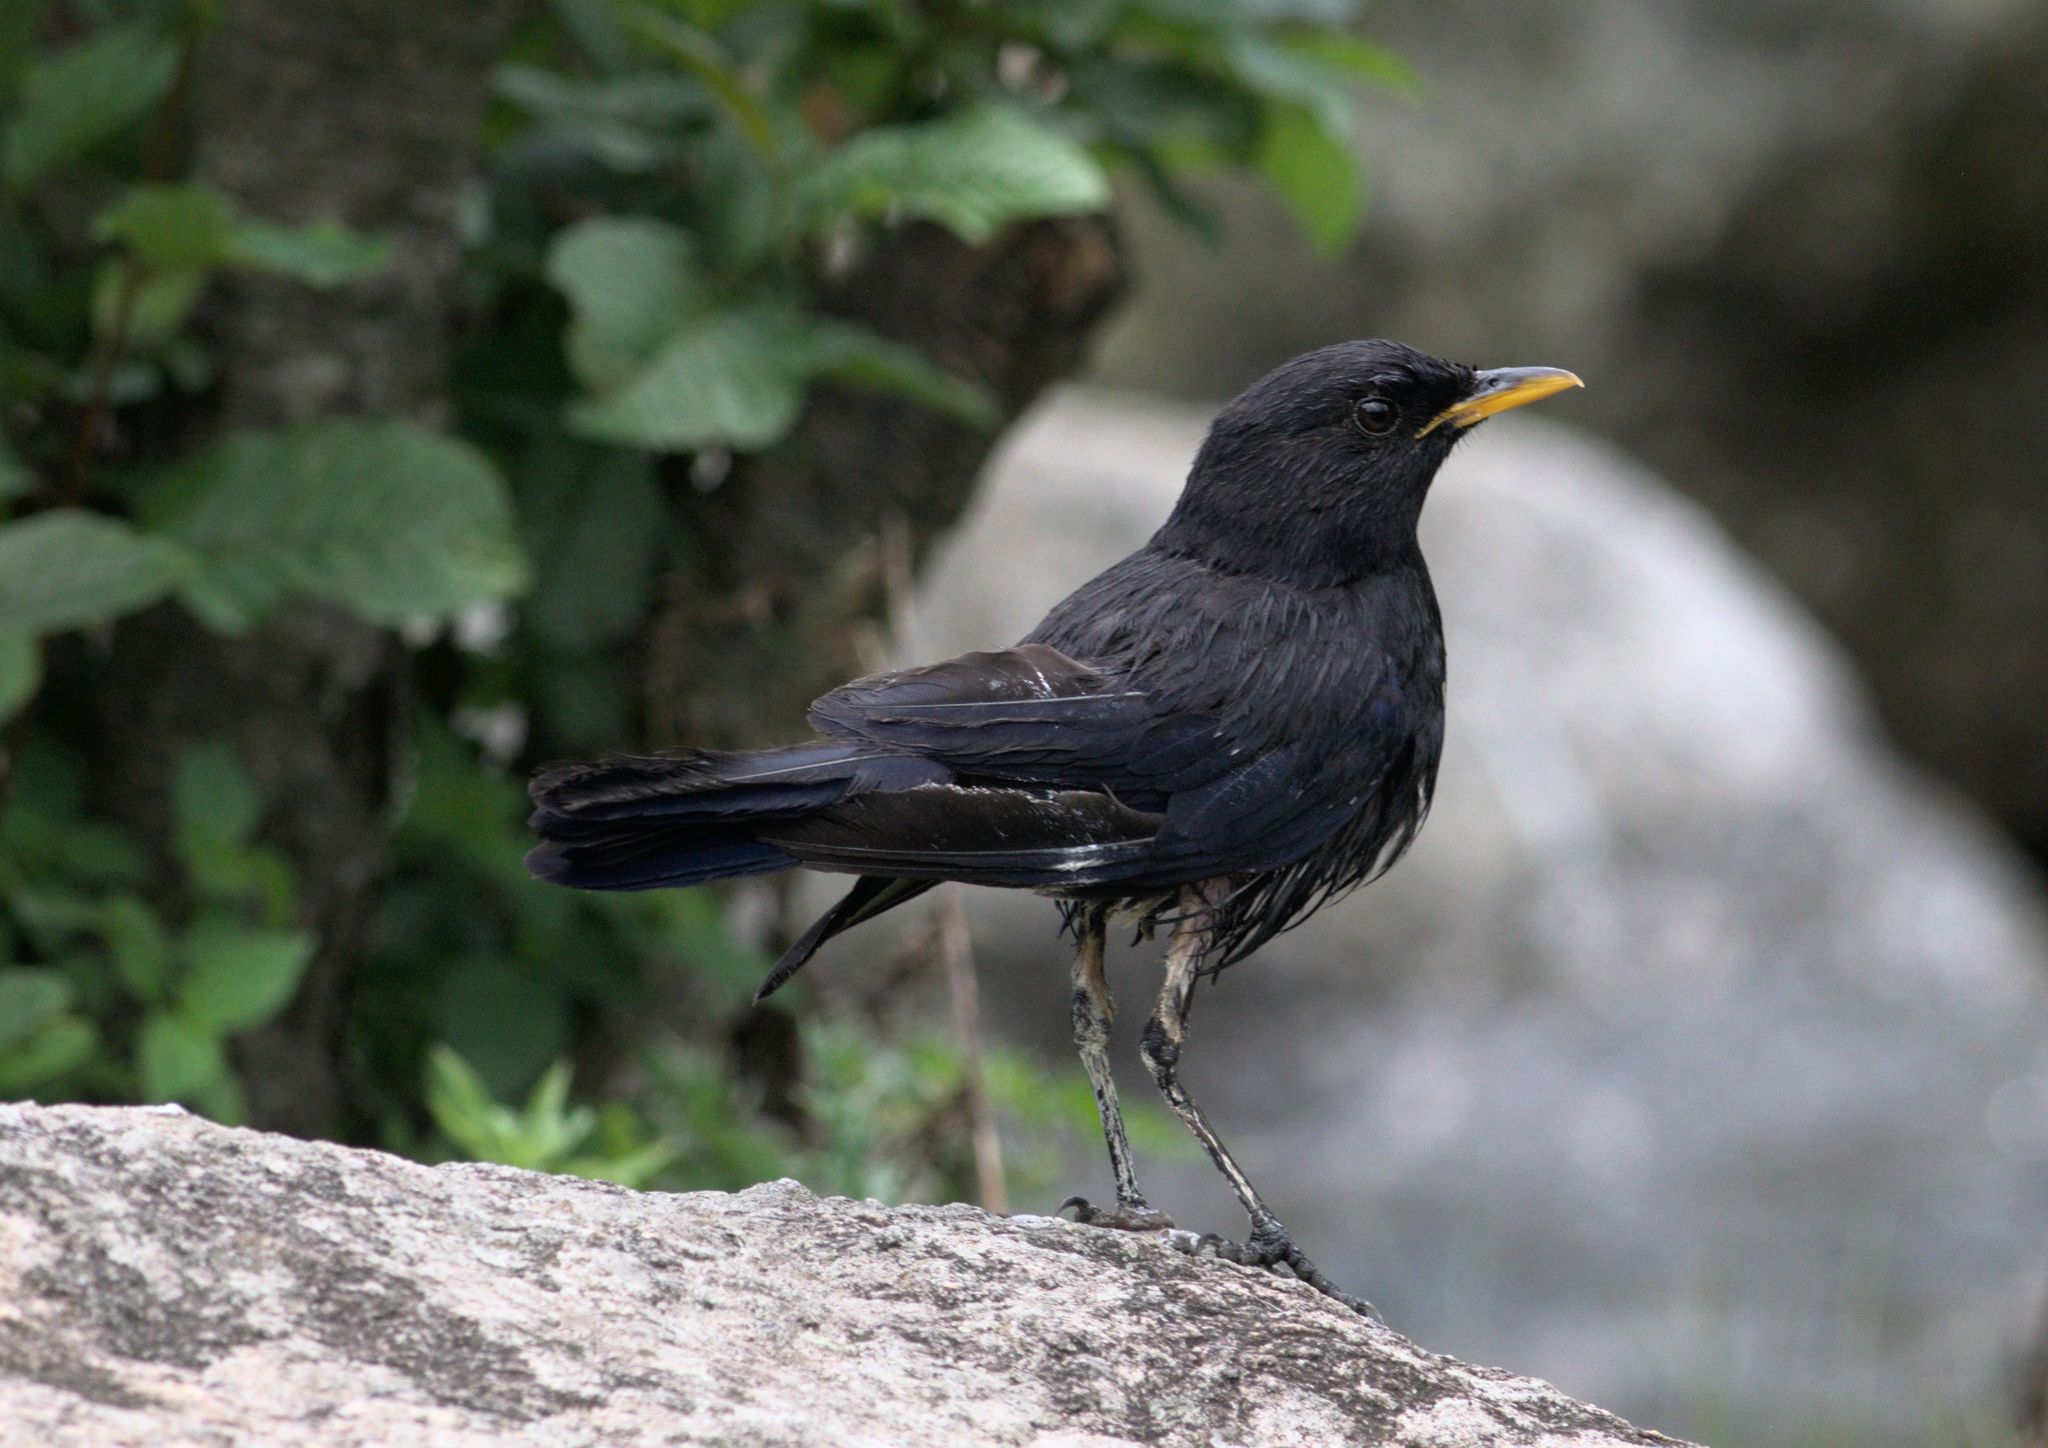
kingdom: Animalia
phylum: Chordata
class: Aves
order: Passeriformes
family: Muscicapidae
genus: Myophonus
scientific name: Myophonus caeruleus
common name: Blue whistling-thrush
